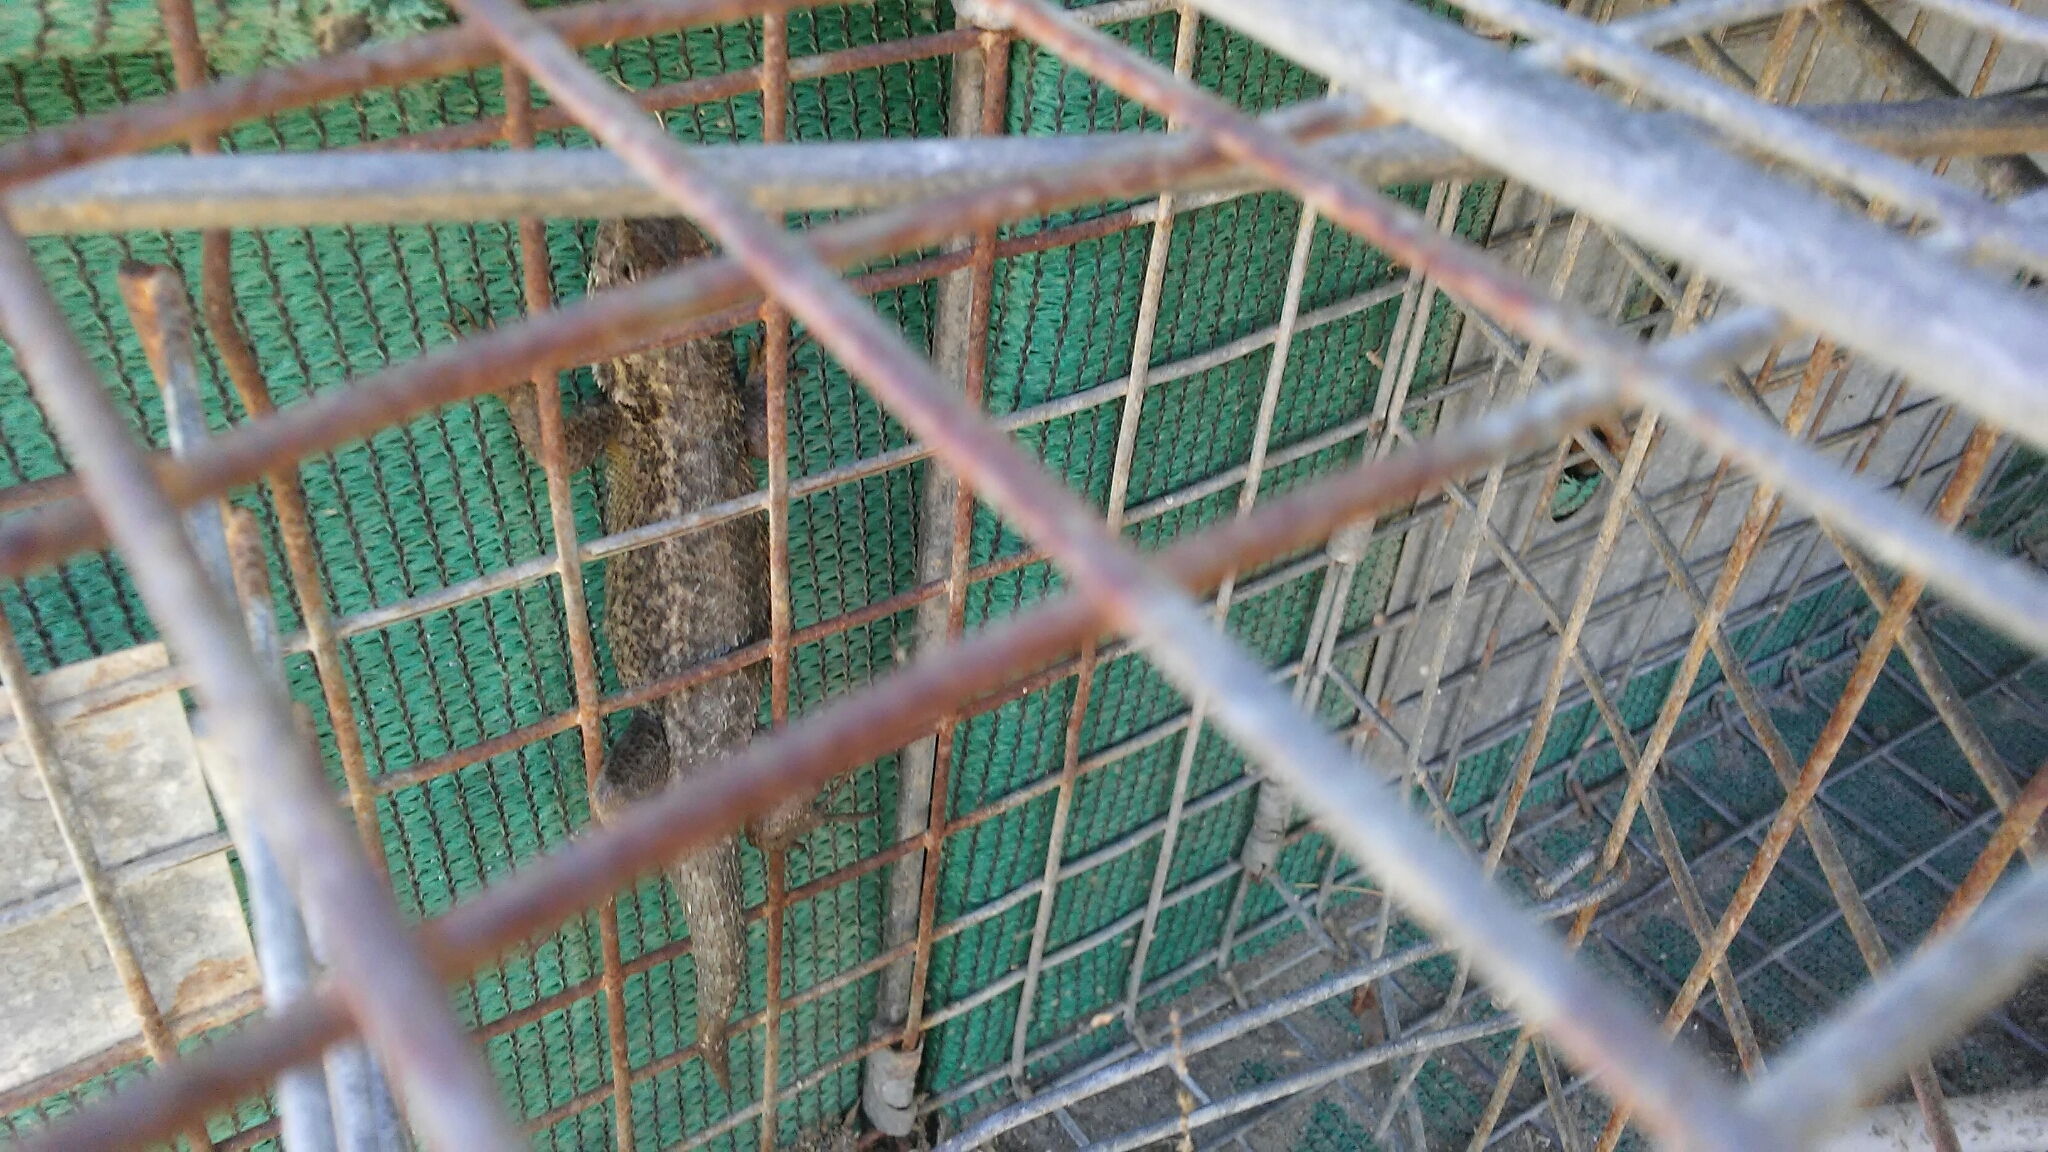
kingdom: Animalia
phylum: Chordata
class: Squamata
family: Phrynosomatidae
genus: Sceloporus
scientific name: Sceloporus becki
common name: Island fence lizard
